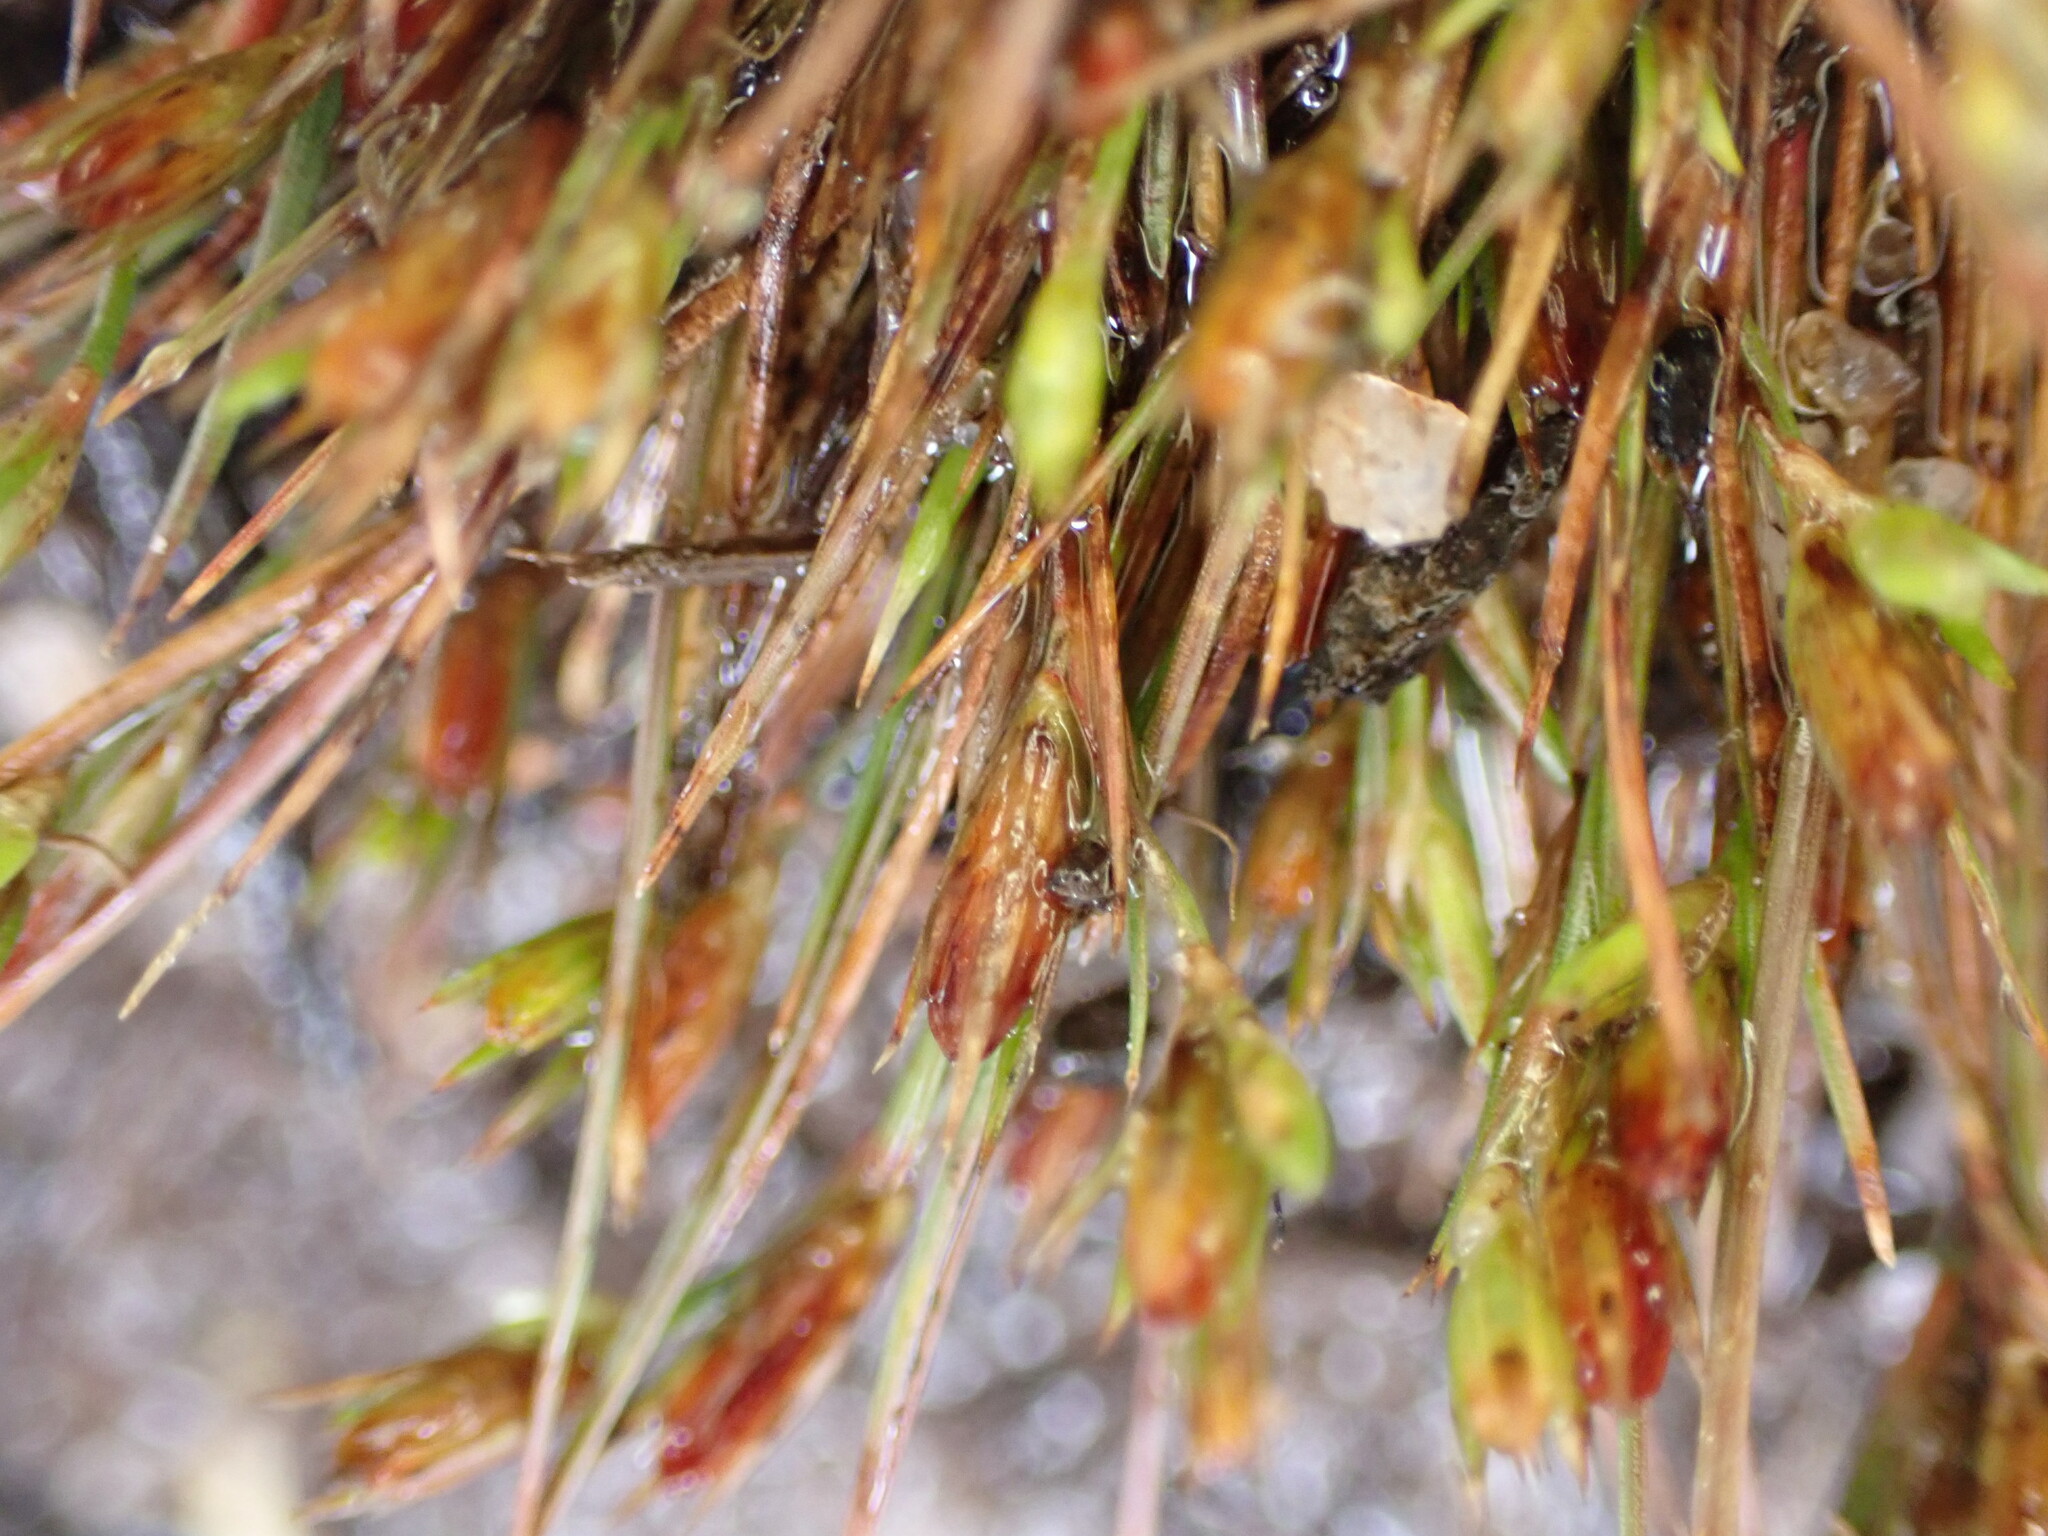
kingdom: Plantae
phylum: Tracheophyta
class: Liliopsida
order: Poales
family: Juncaceae
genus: Juncus
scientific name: Juncus bufonius
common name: Toad rush
